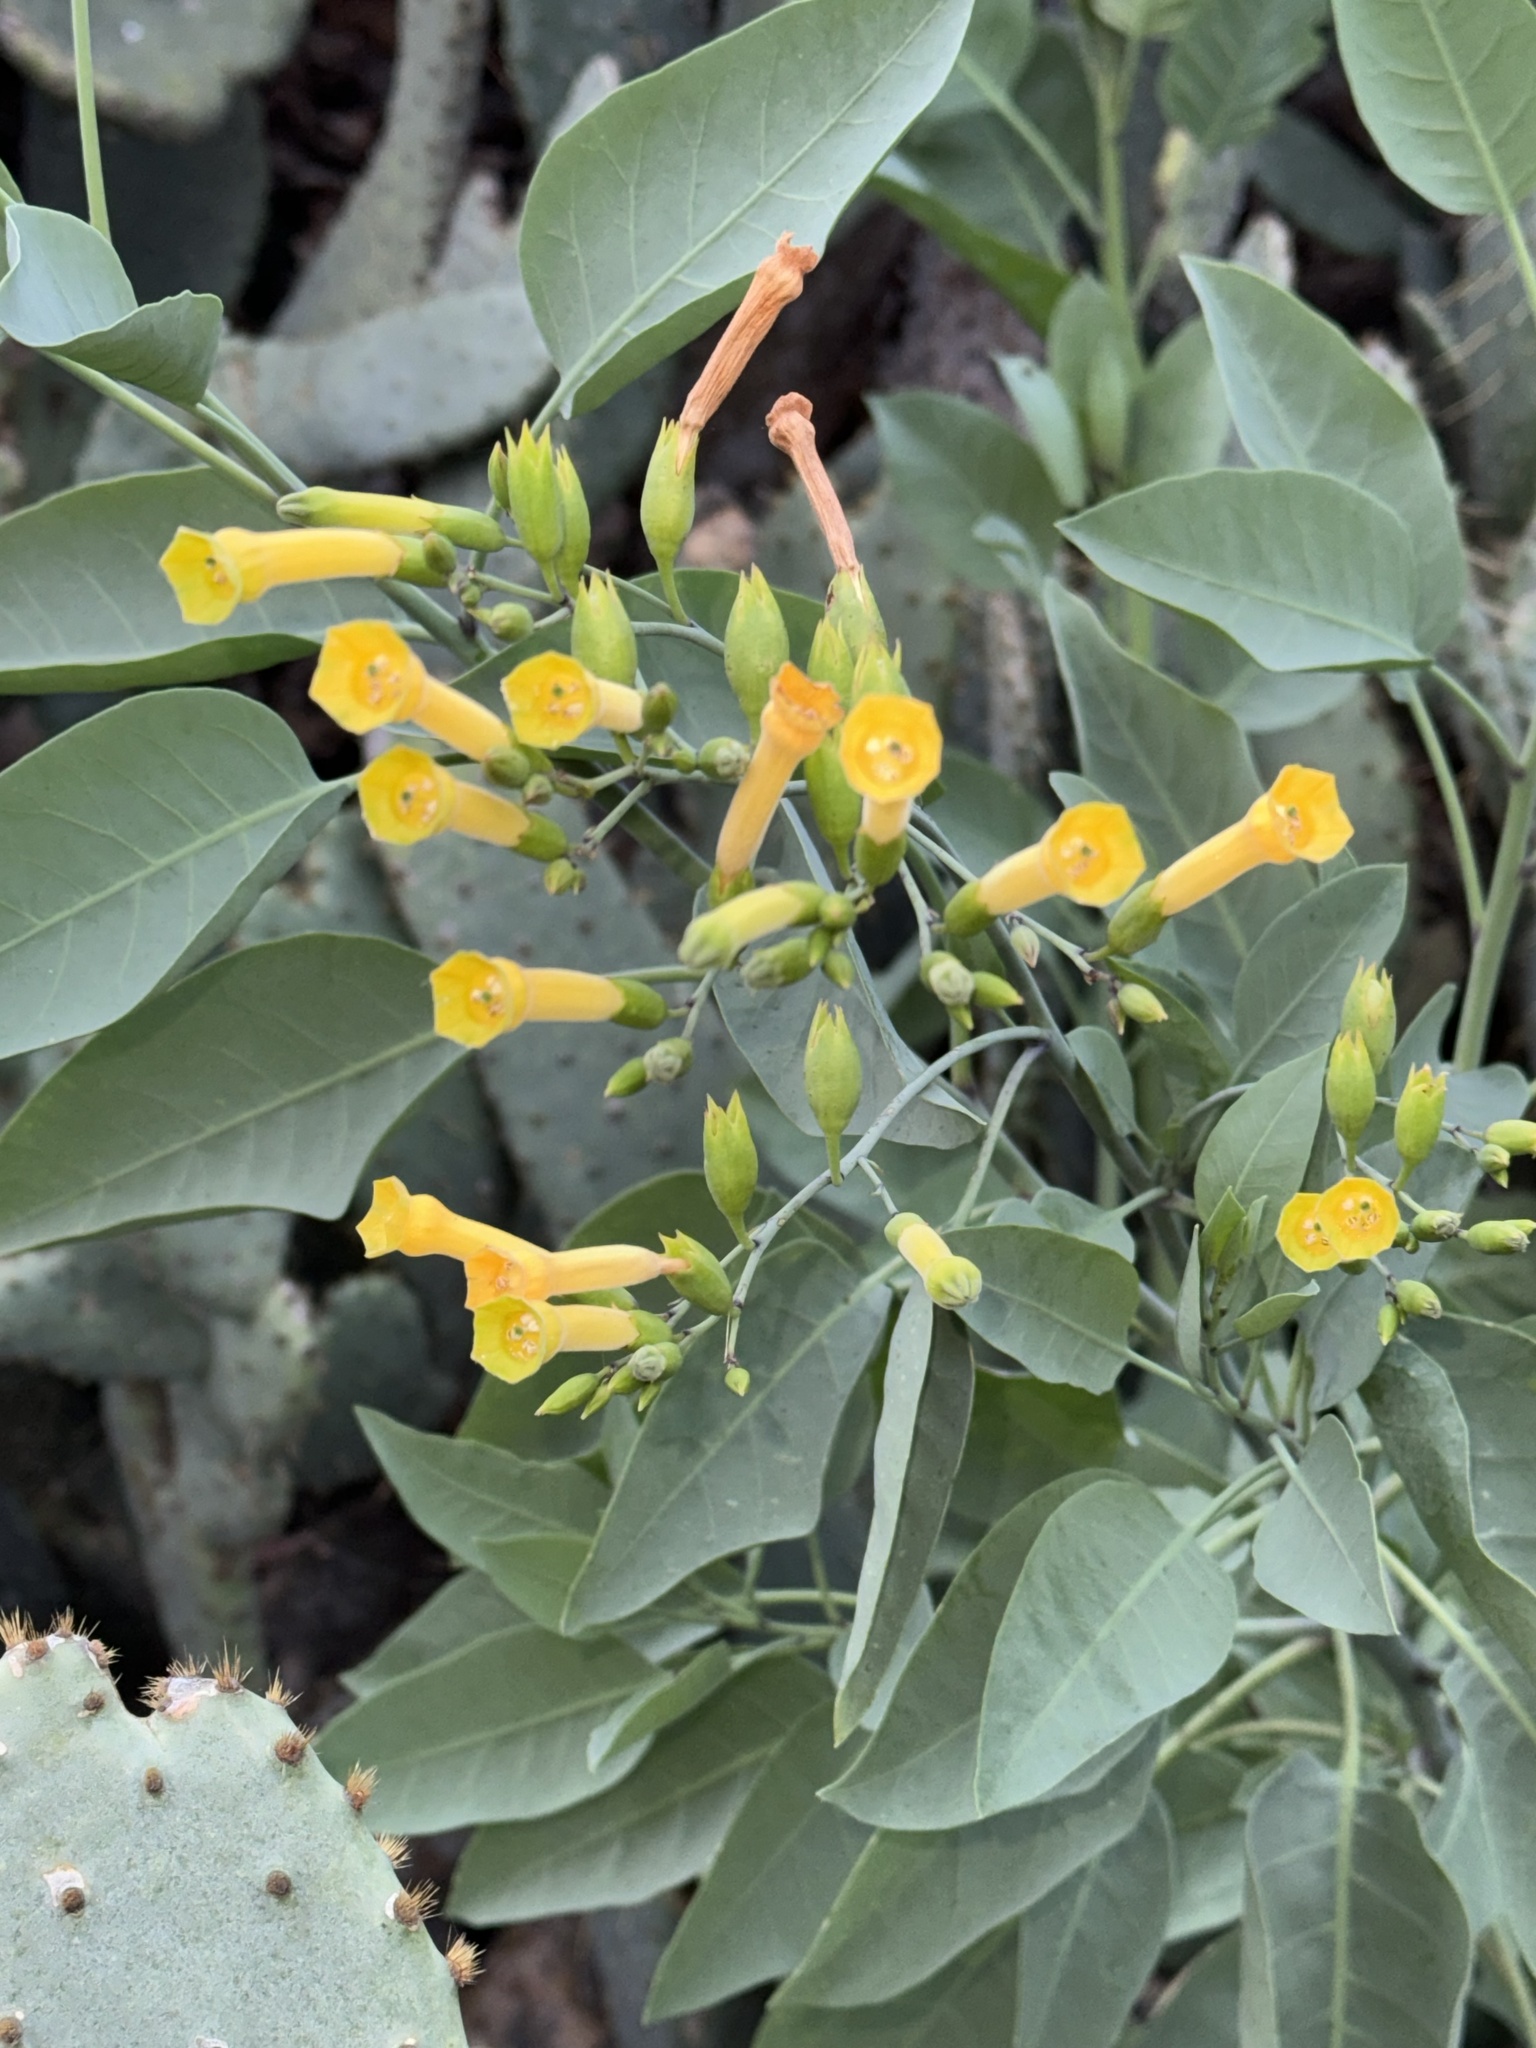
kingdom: Plantae
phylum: Tracheophyta
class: Magnoliopsida
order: Solanales
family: Solanaceae
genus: Nicotiana
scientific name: Nicotiana glauca
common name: Tree tobacco
